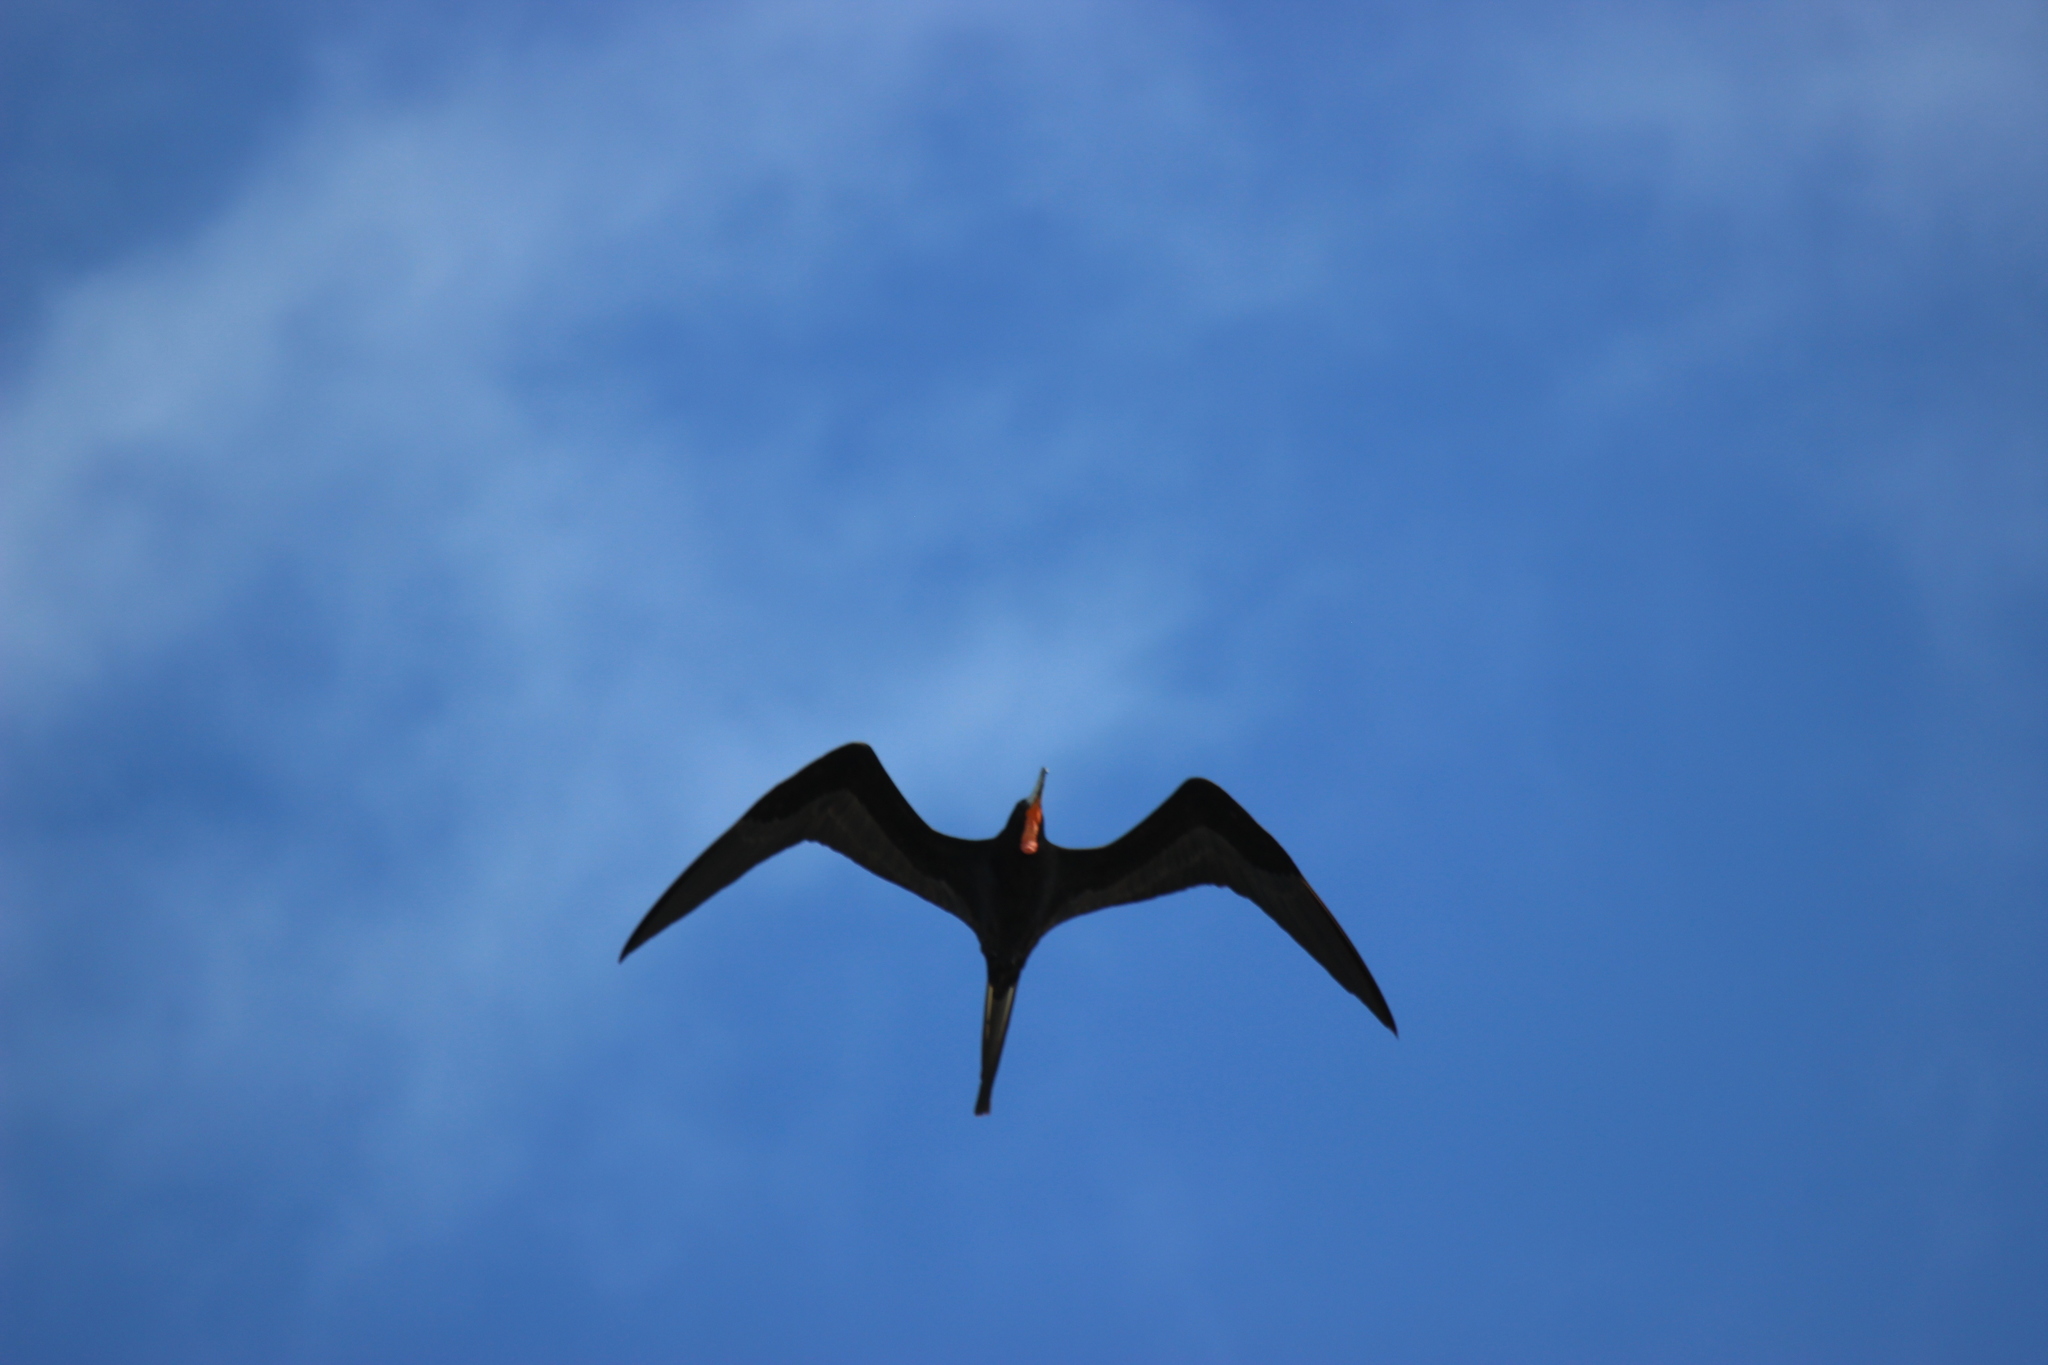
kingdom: Animalia
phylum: Chordata
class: Aves
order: Suliformes
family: Fregatidae
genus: Fregata
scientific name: Fregata magnificens
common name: Magnificent frigatebird
